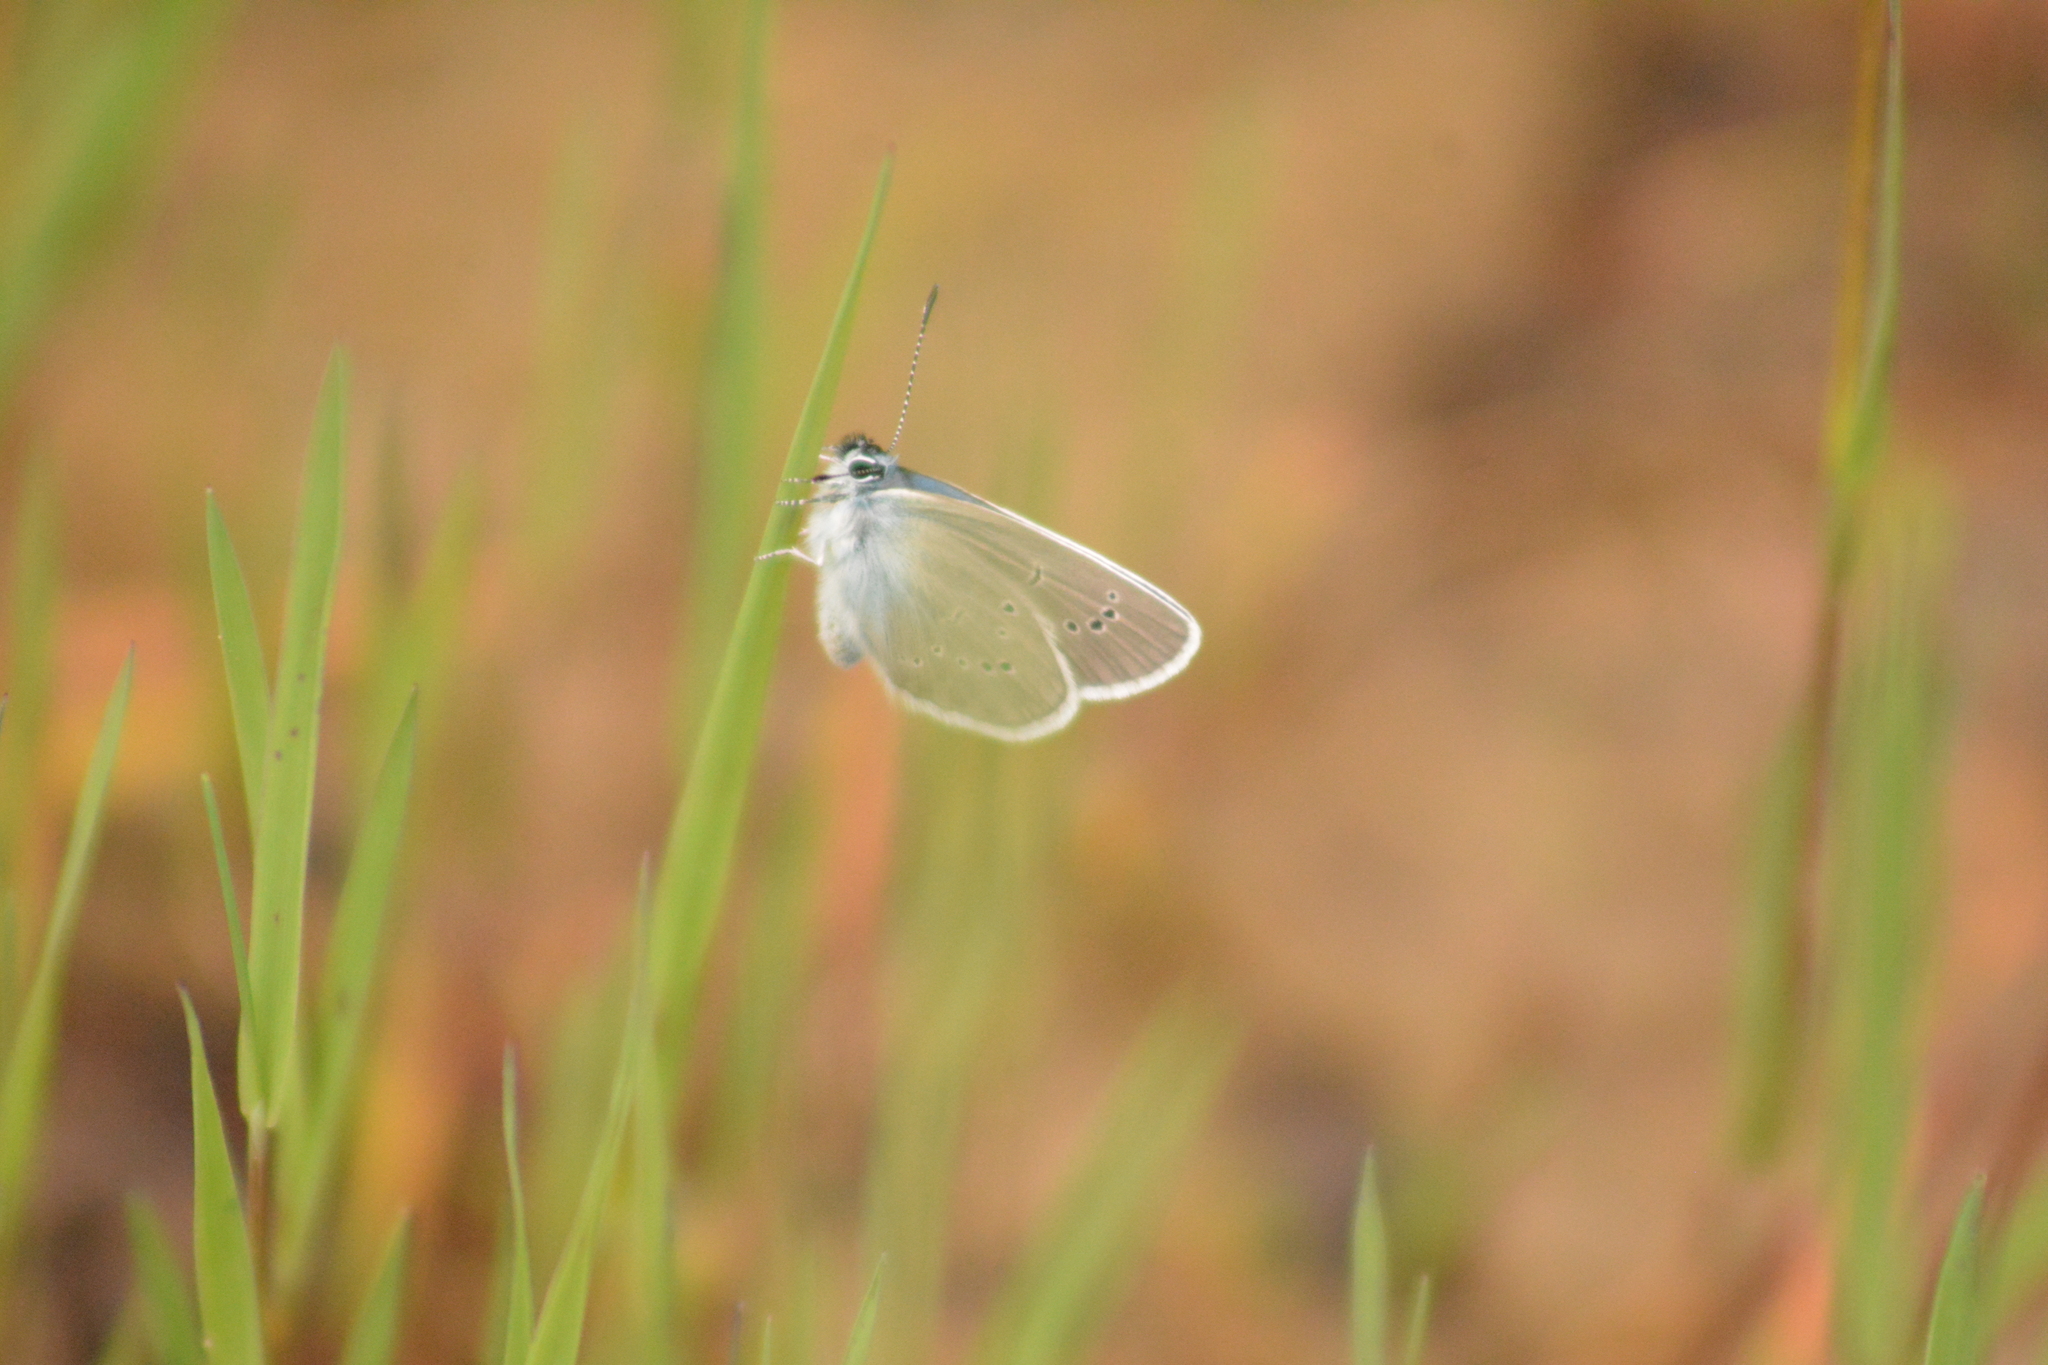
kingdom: Animalia
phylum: Arthropoda
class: Insecta
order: Lepidoptera
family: Lycaenidae
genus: Cyaniris
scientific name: Cyaniris semiargus
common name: Mazarine blue
